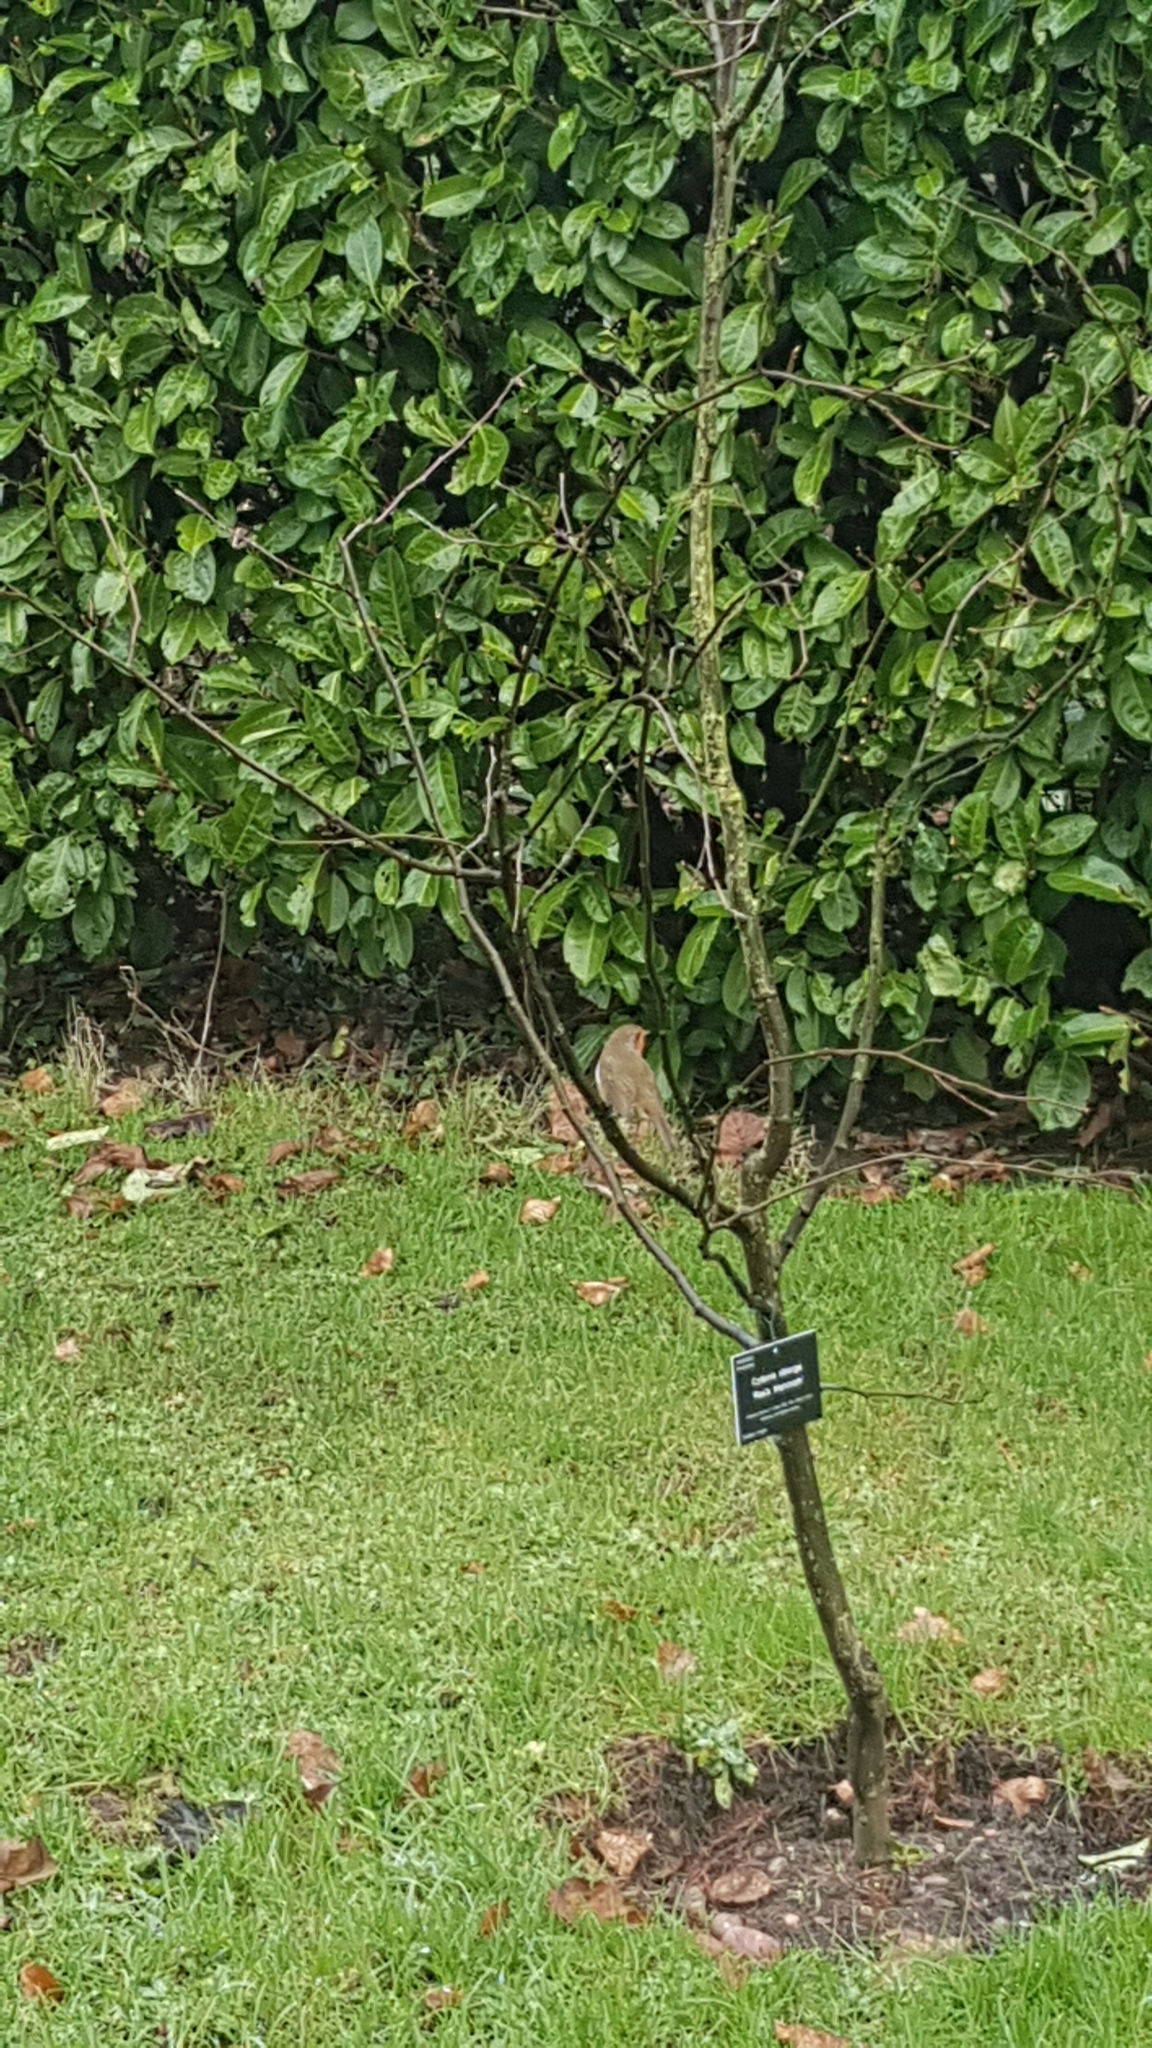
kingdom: Animalia
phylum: Chordata
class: Aves
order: Passeriformes
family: Muscicapidae
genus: Erithacus
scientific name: Erithacus rubecula
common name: European robin
